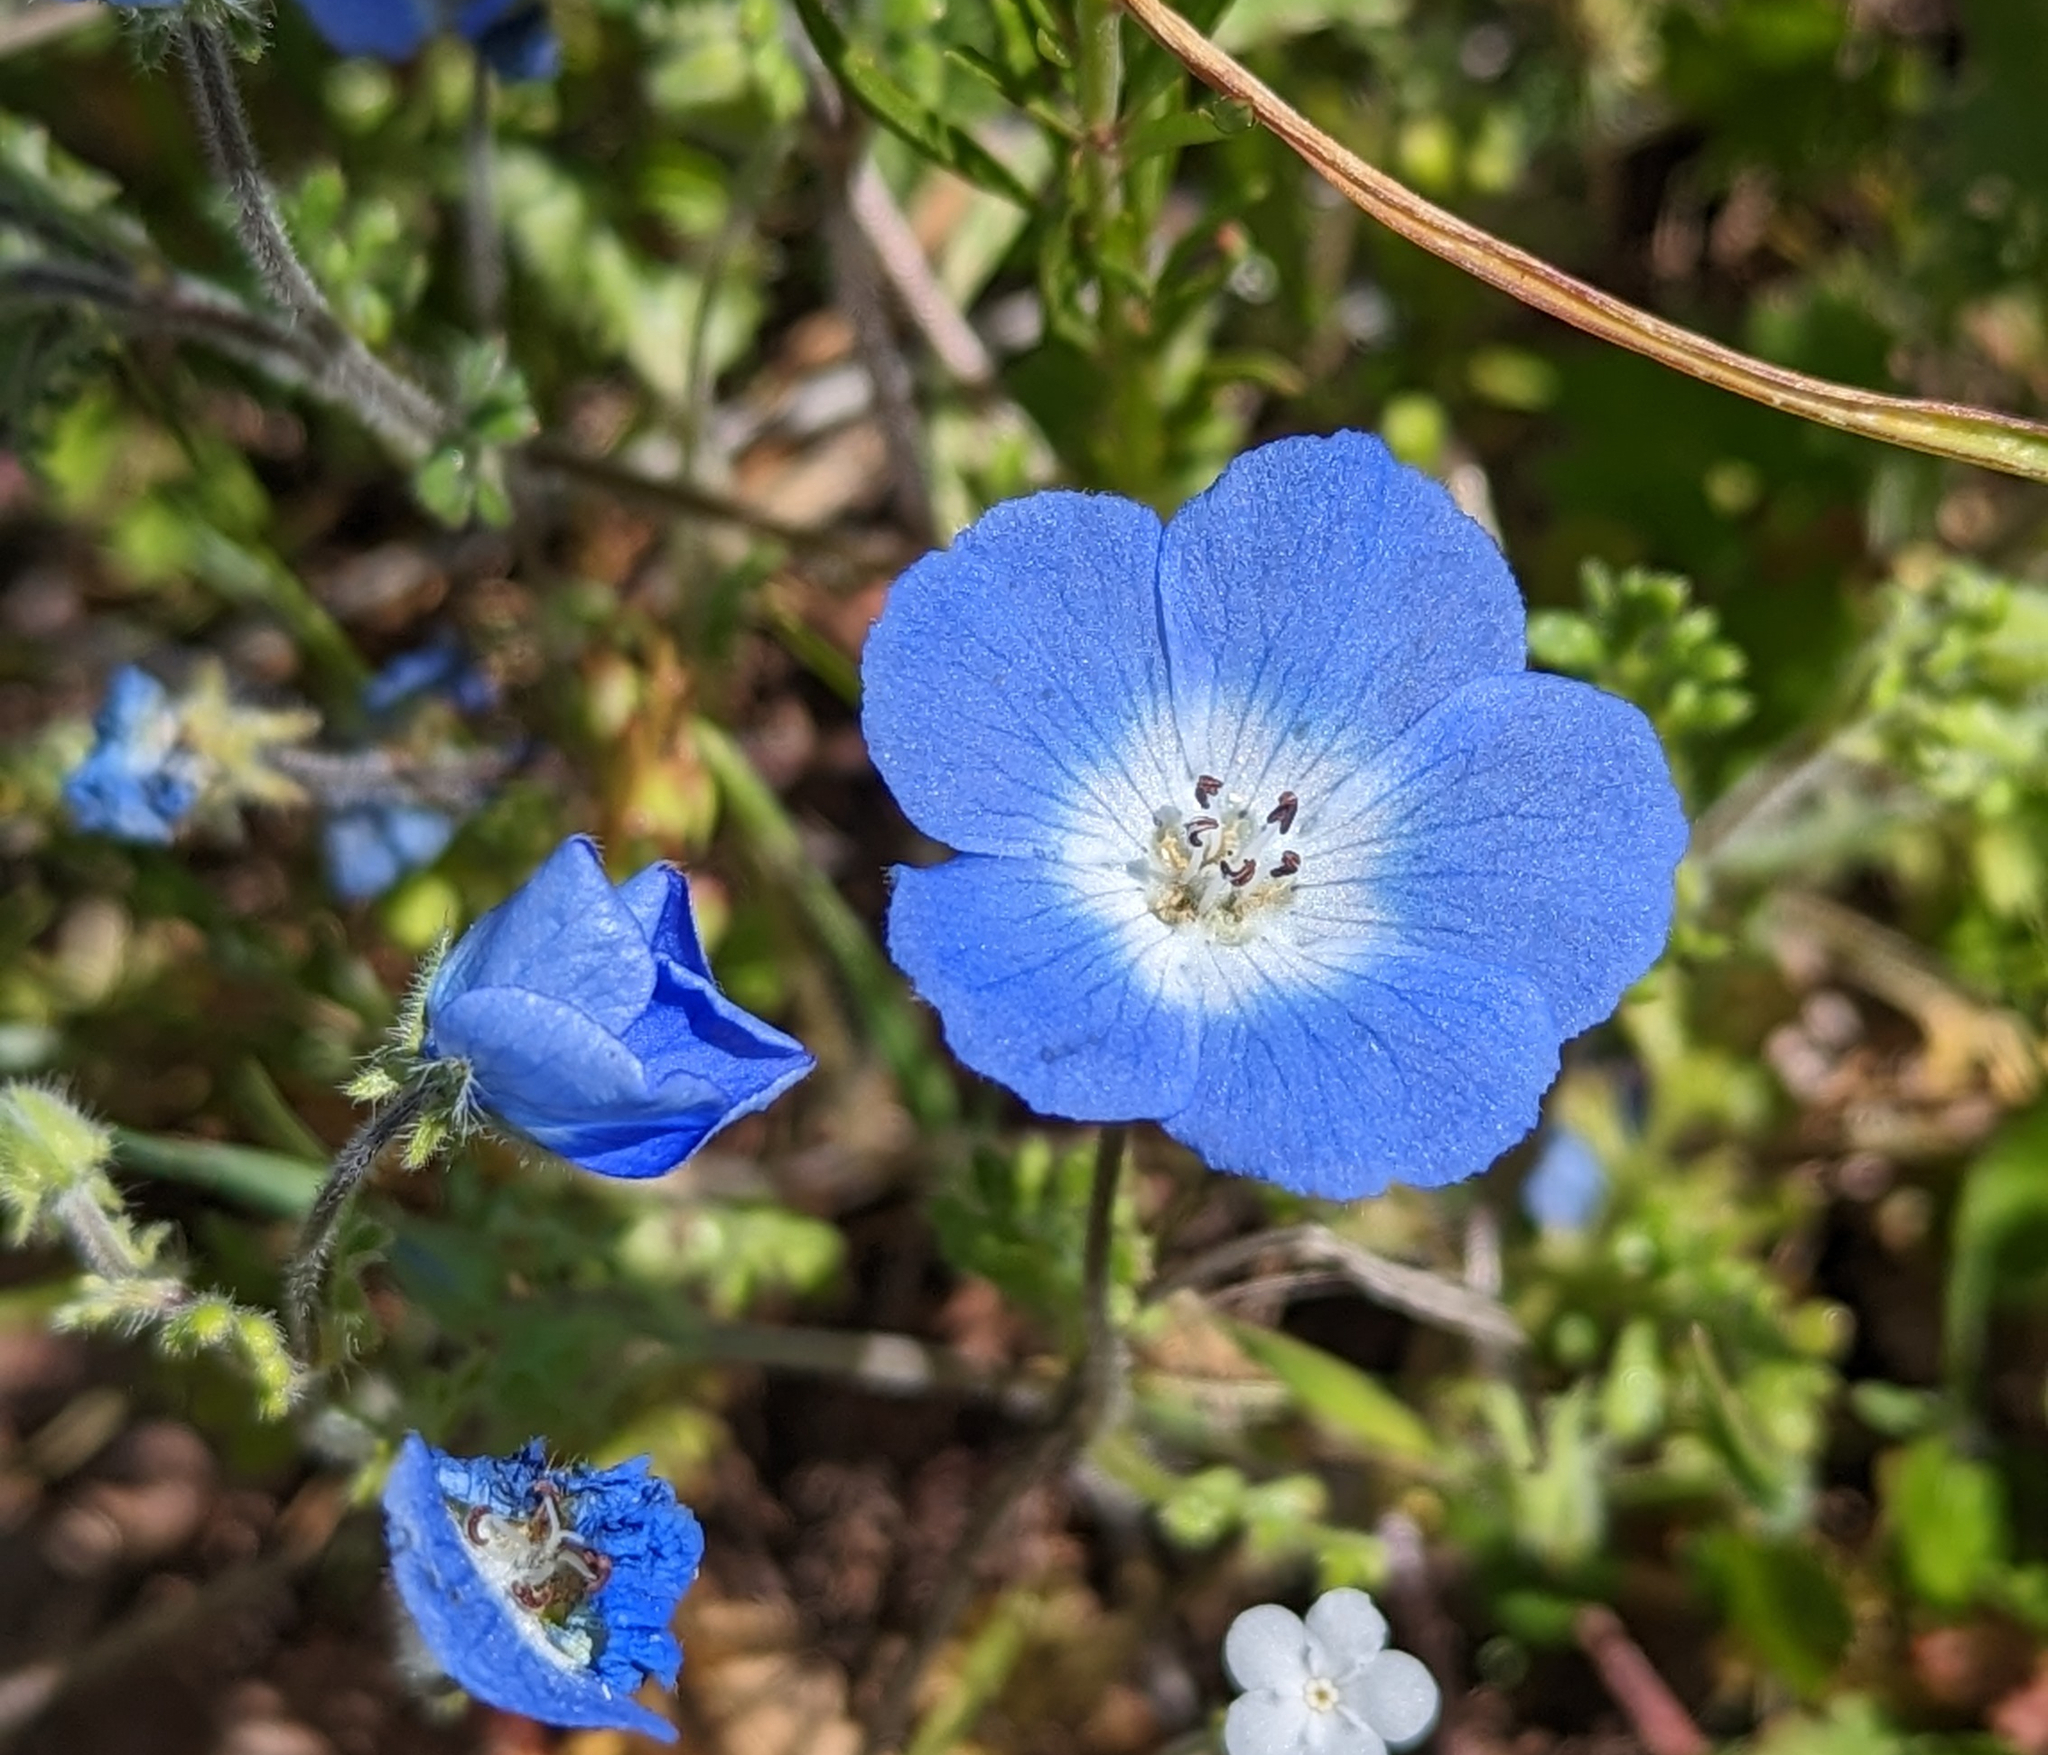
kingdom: Plantae
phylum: Tracheophyta
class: Magnoliopsida
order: Boraginales
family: Hydrophyllaceae
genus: Nemophila
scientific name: Nemophila menziesii
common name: Baby's-blue-eyes
